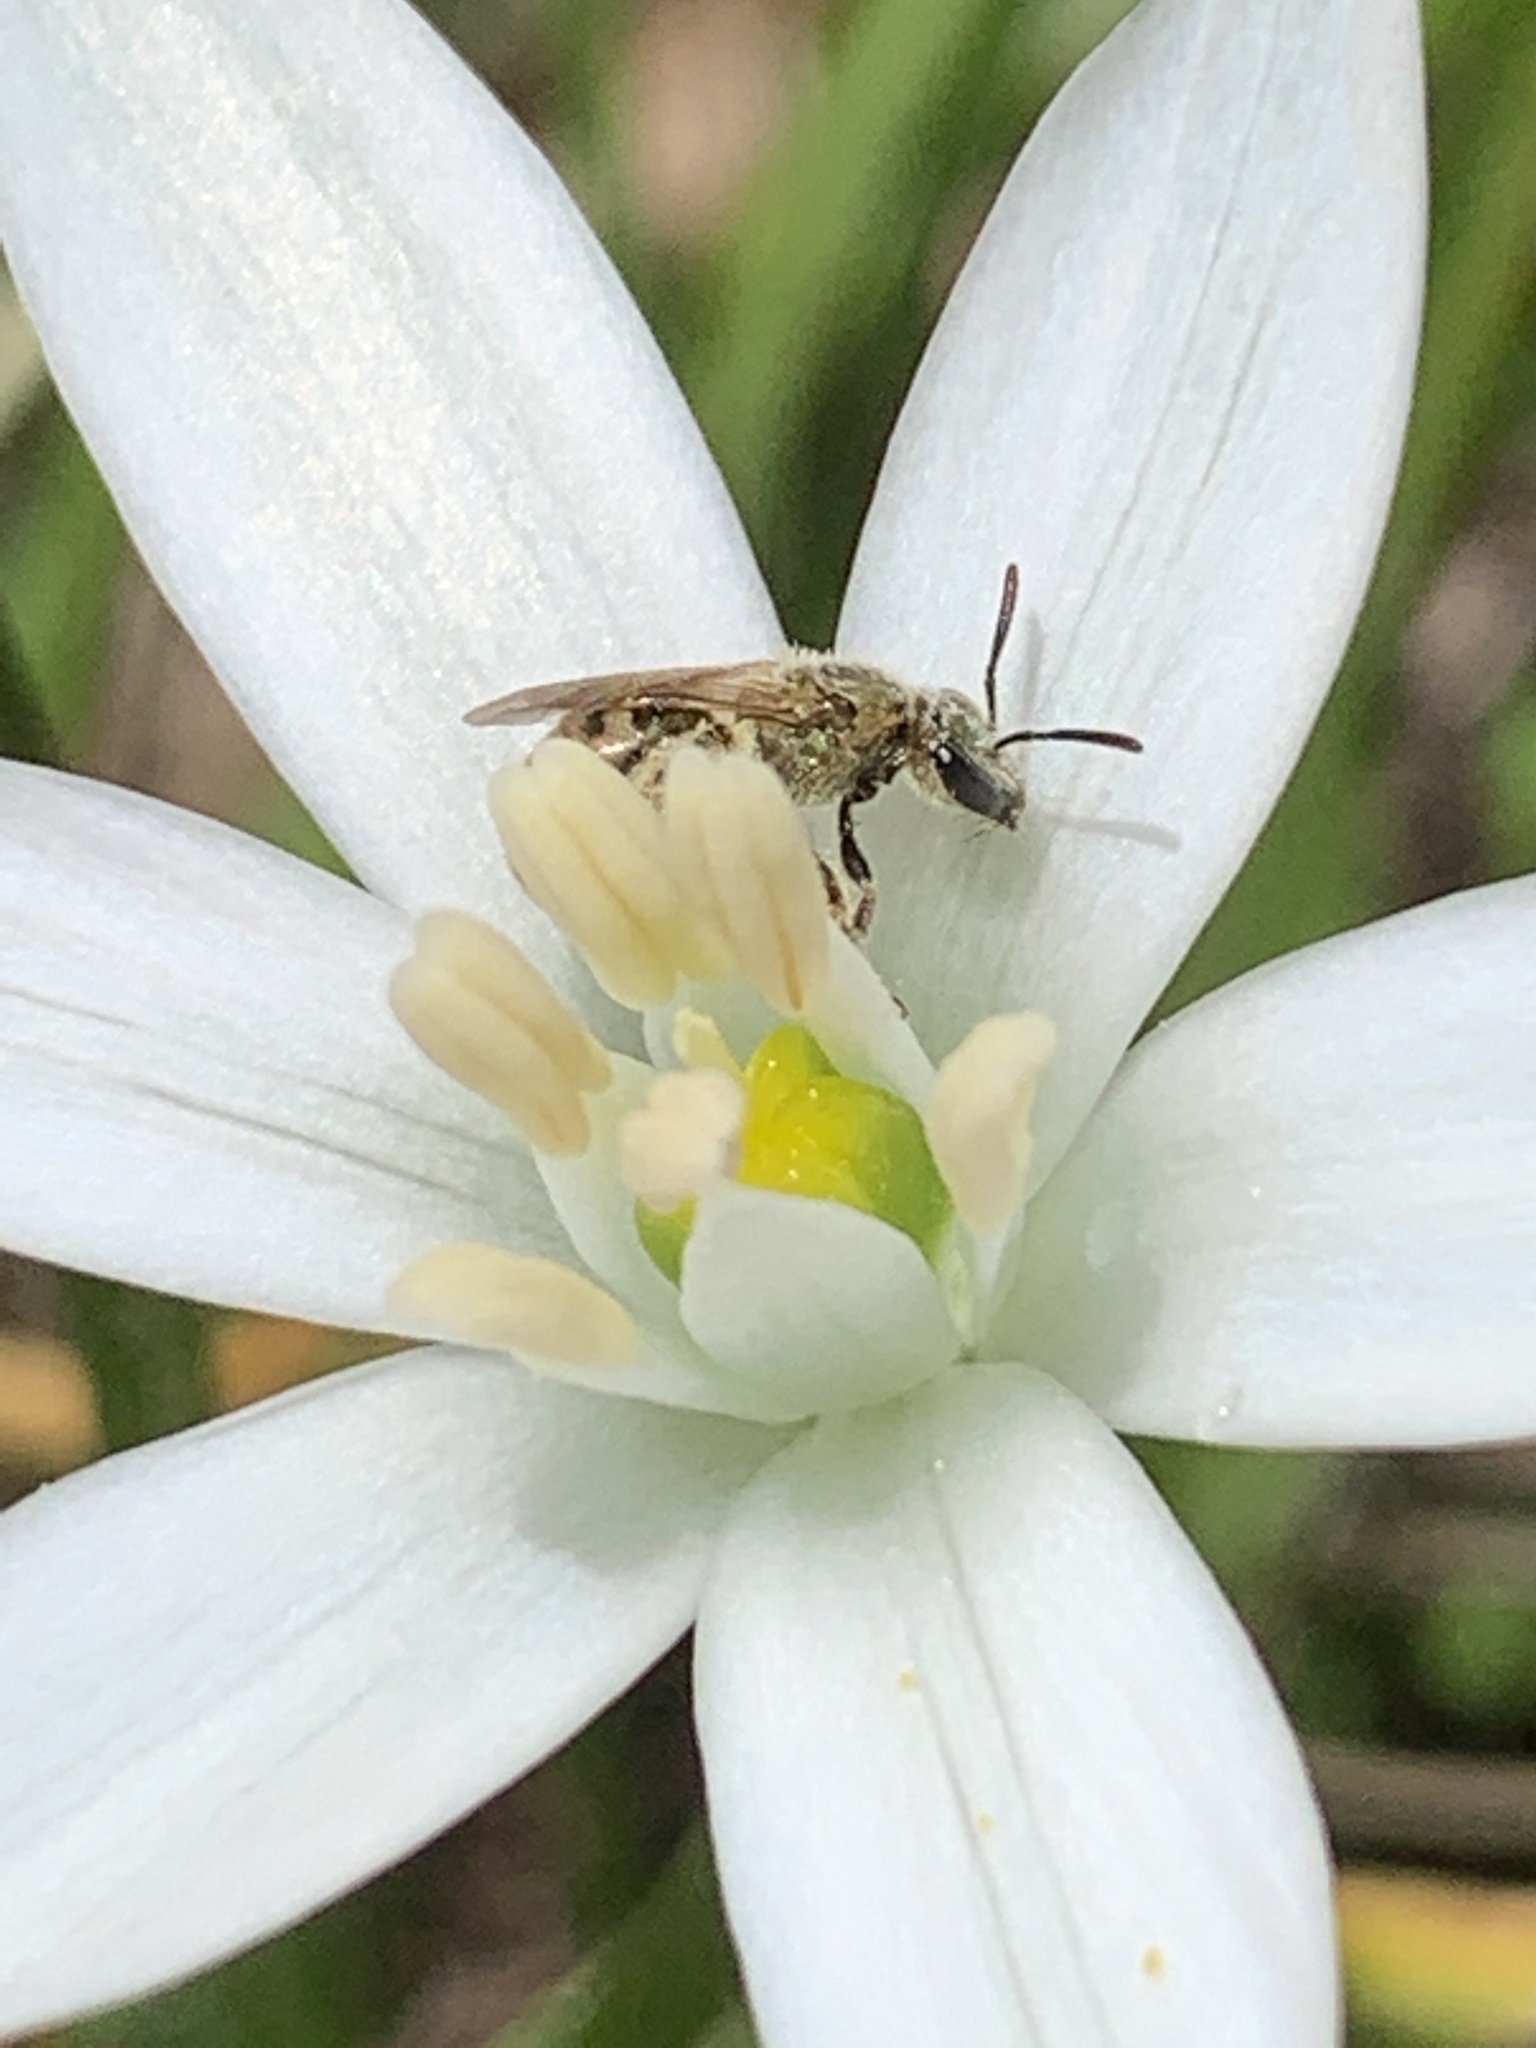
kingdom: Animalia
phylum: Arthropoda
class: Insecta
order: Hymenoptera
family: Halictidae
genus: Dialictus
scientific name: Dialictus
